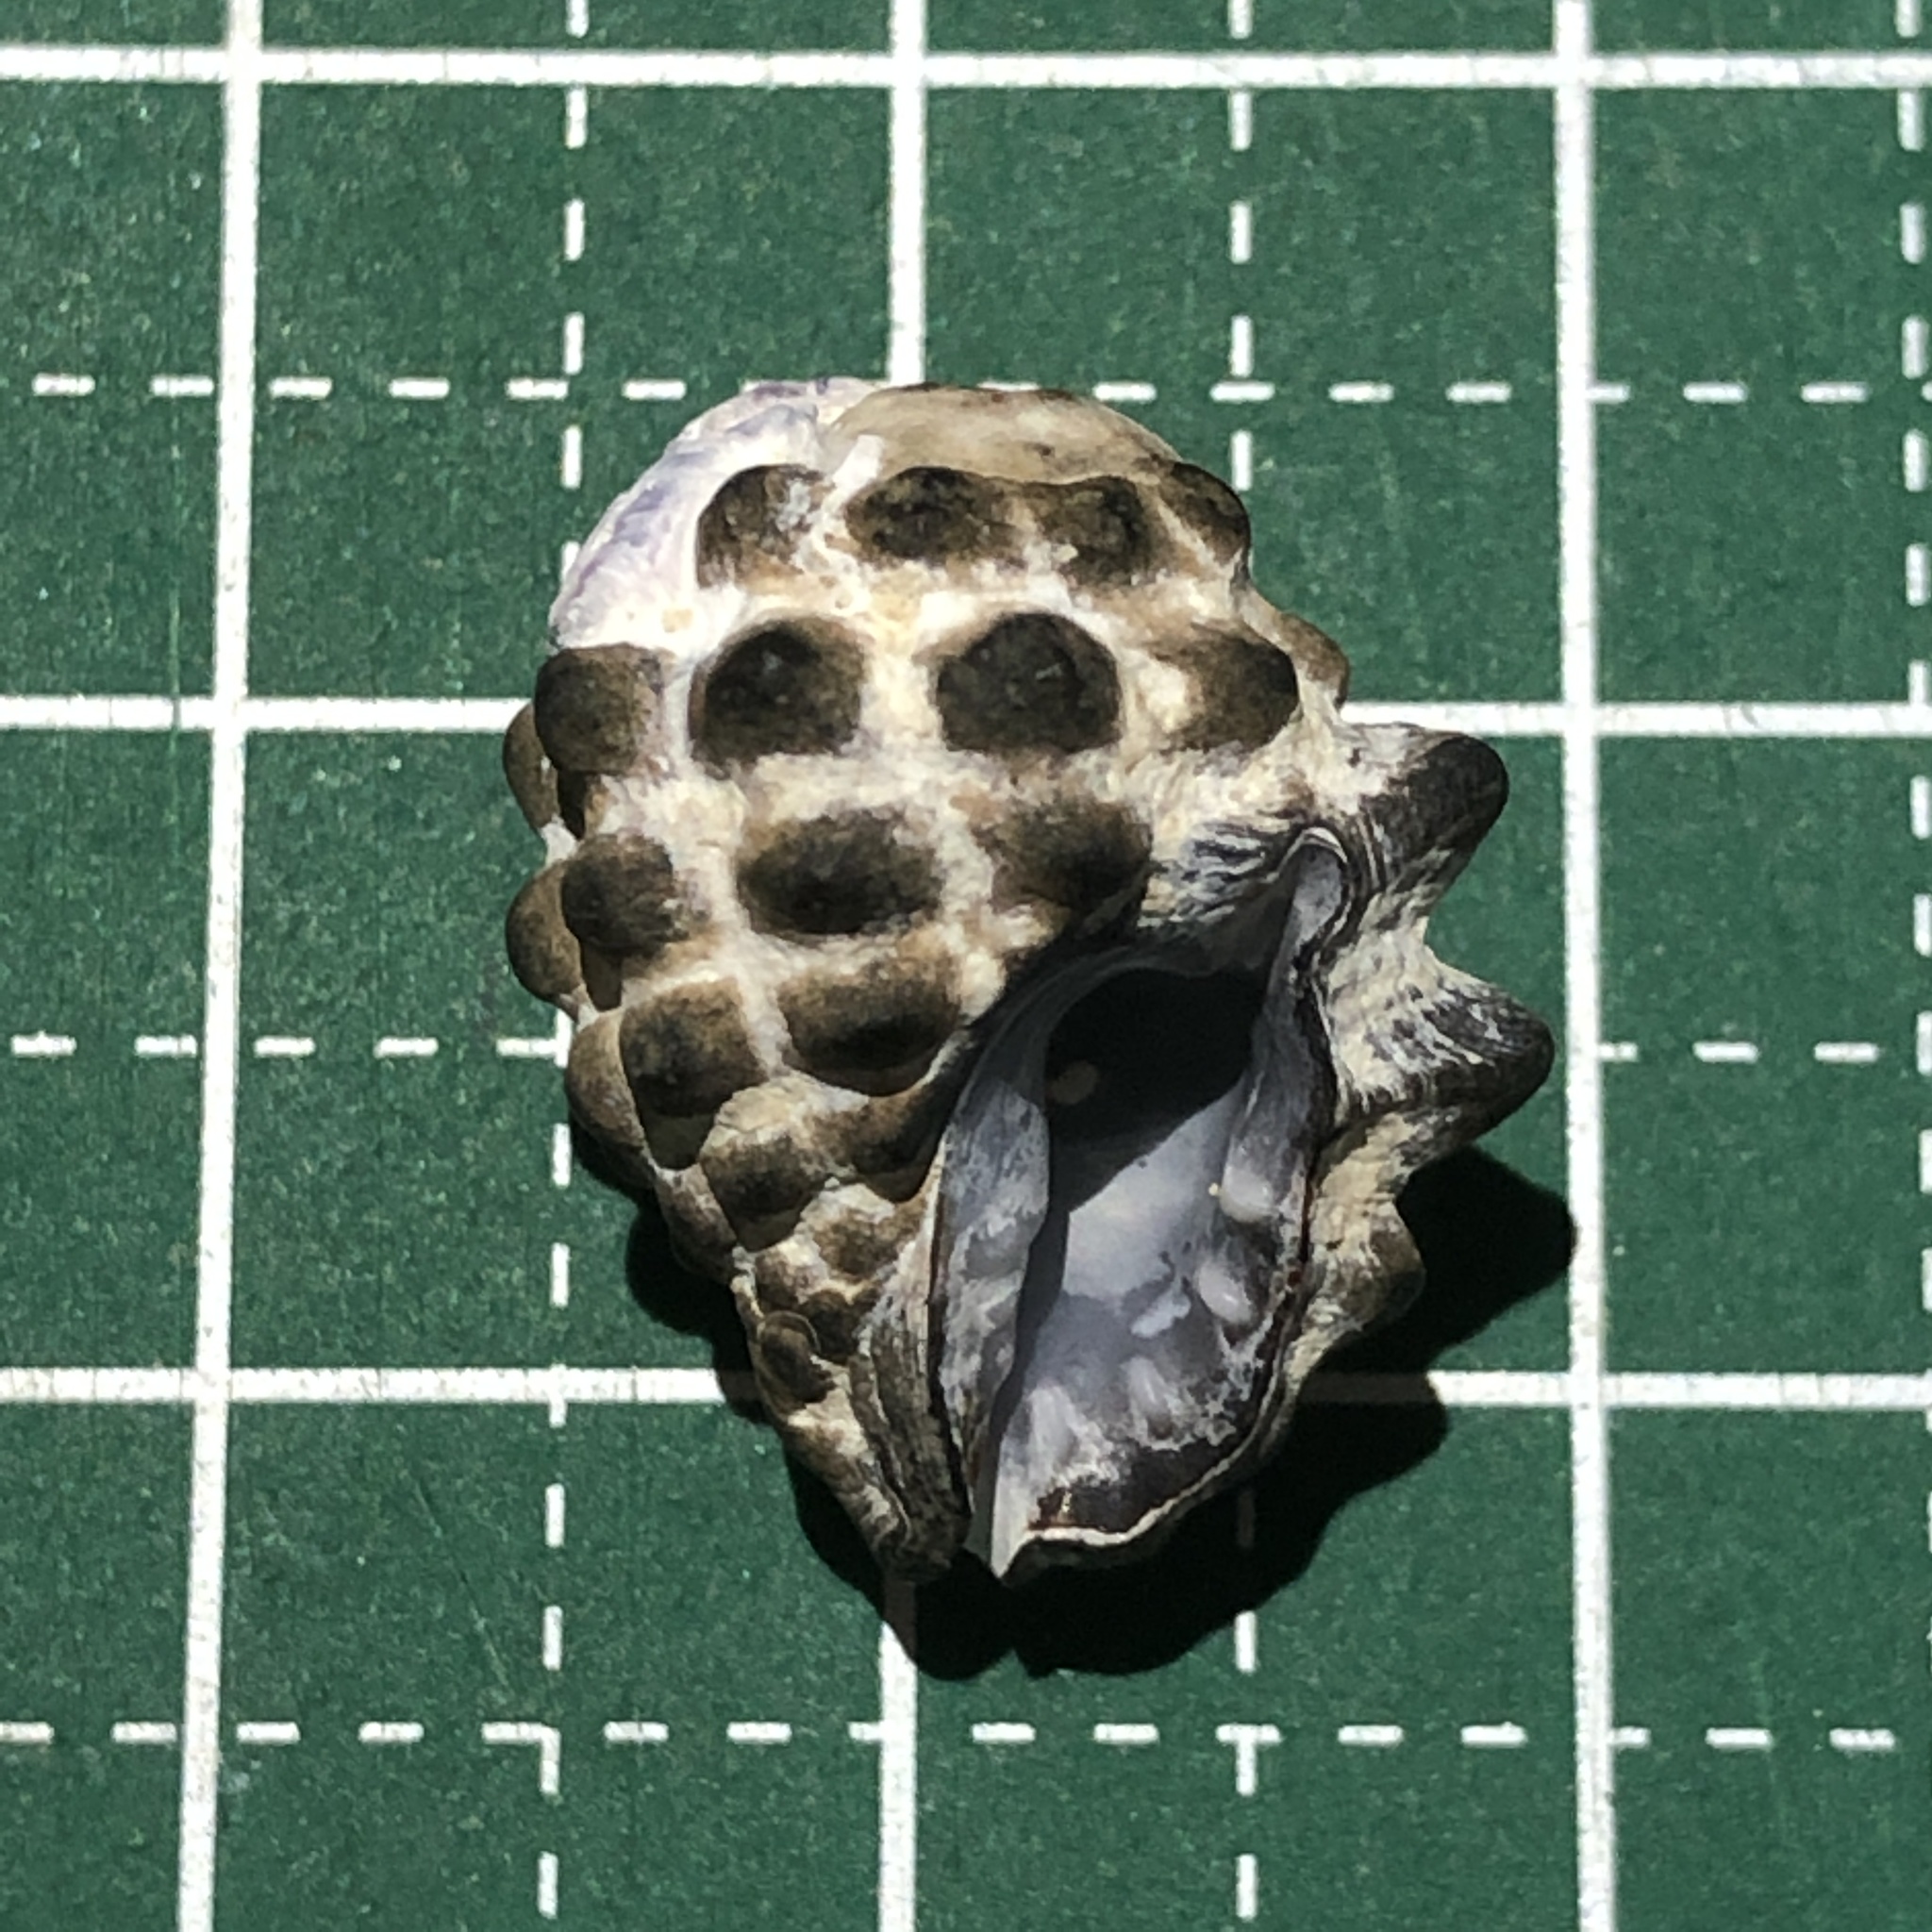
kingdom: Animalia
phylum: Mollusca
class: Gastropoda
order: Neogastropoda
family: Muricidae
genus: Tenguella
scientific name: Tenguella granulata
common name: Granular drupe
